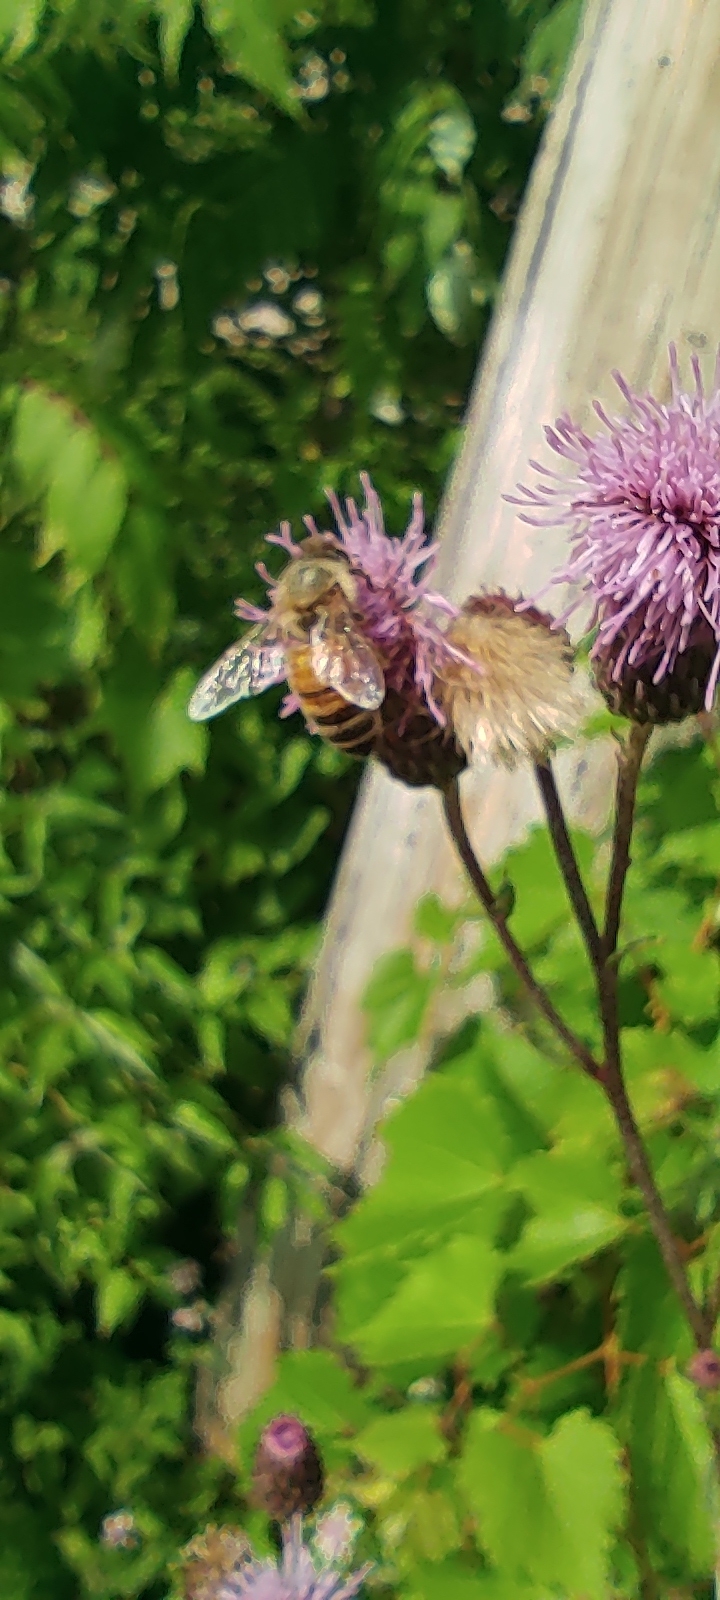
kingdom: Animalia
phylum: Arthropoda
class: Insecta
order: Hymenoptera
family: Apidae
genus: Apis
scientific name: Apis mellifera
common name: Honey bee
